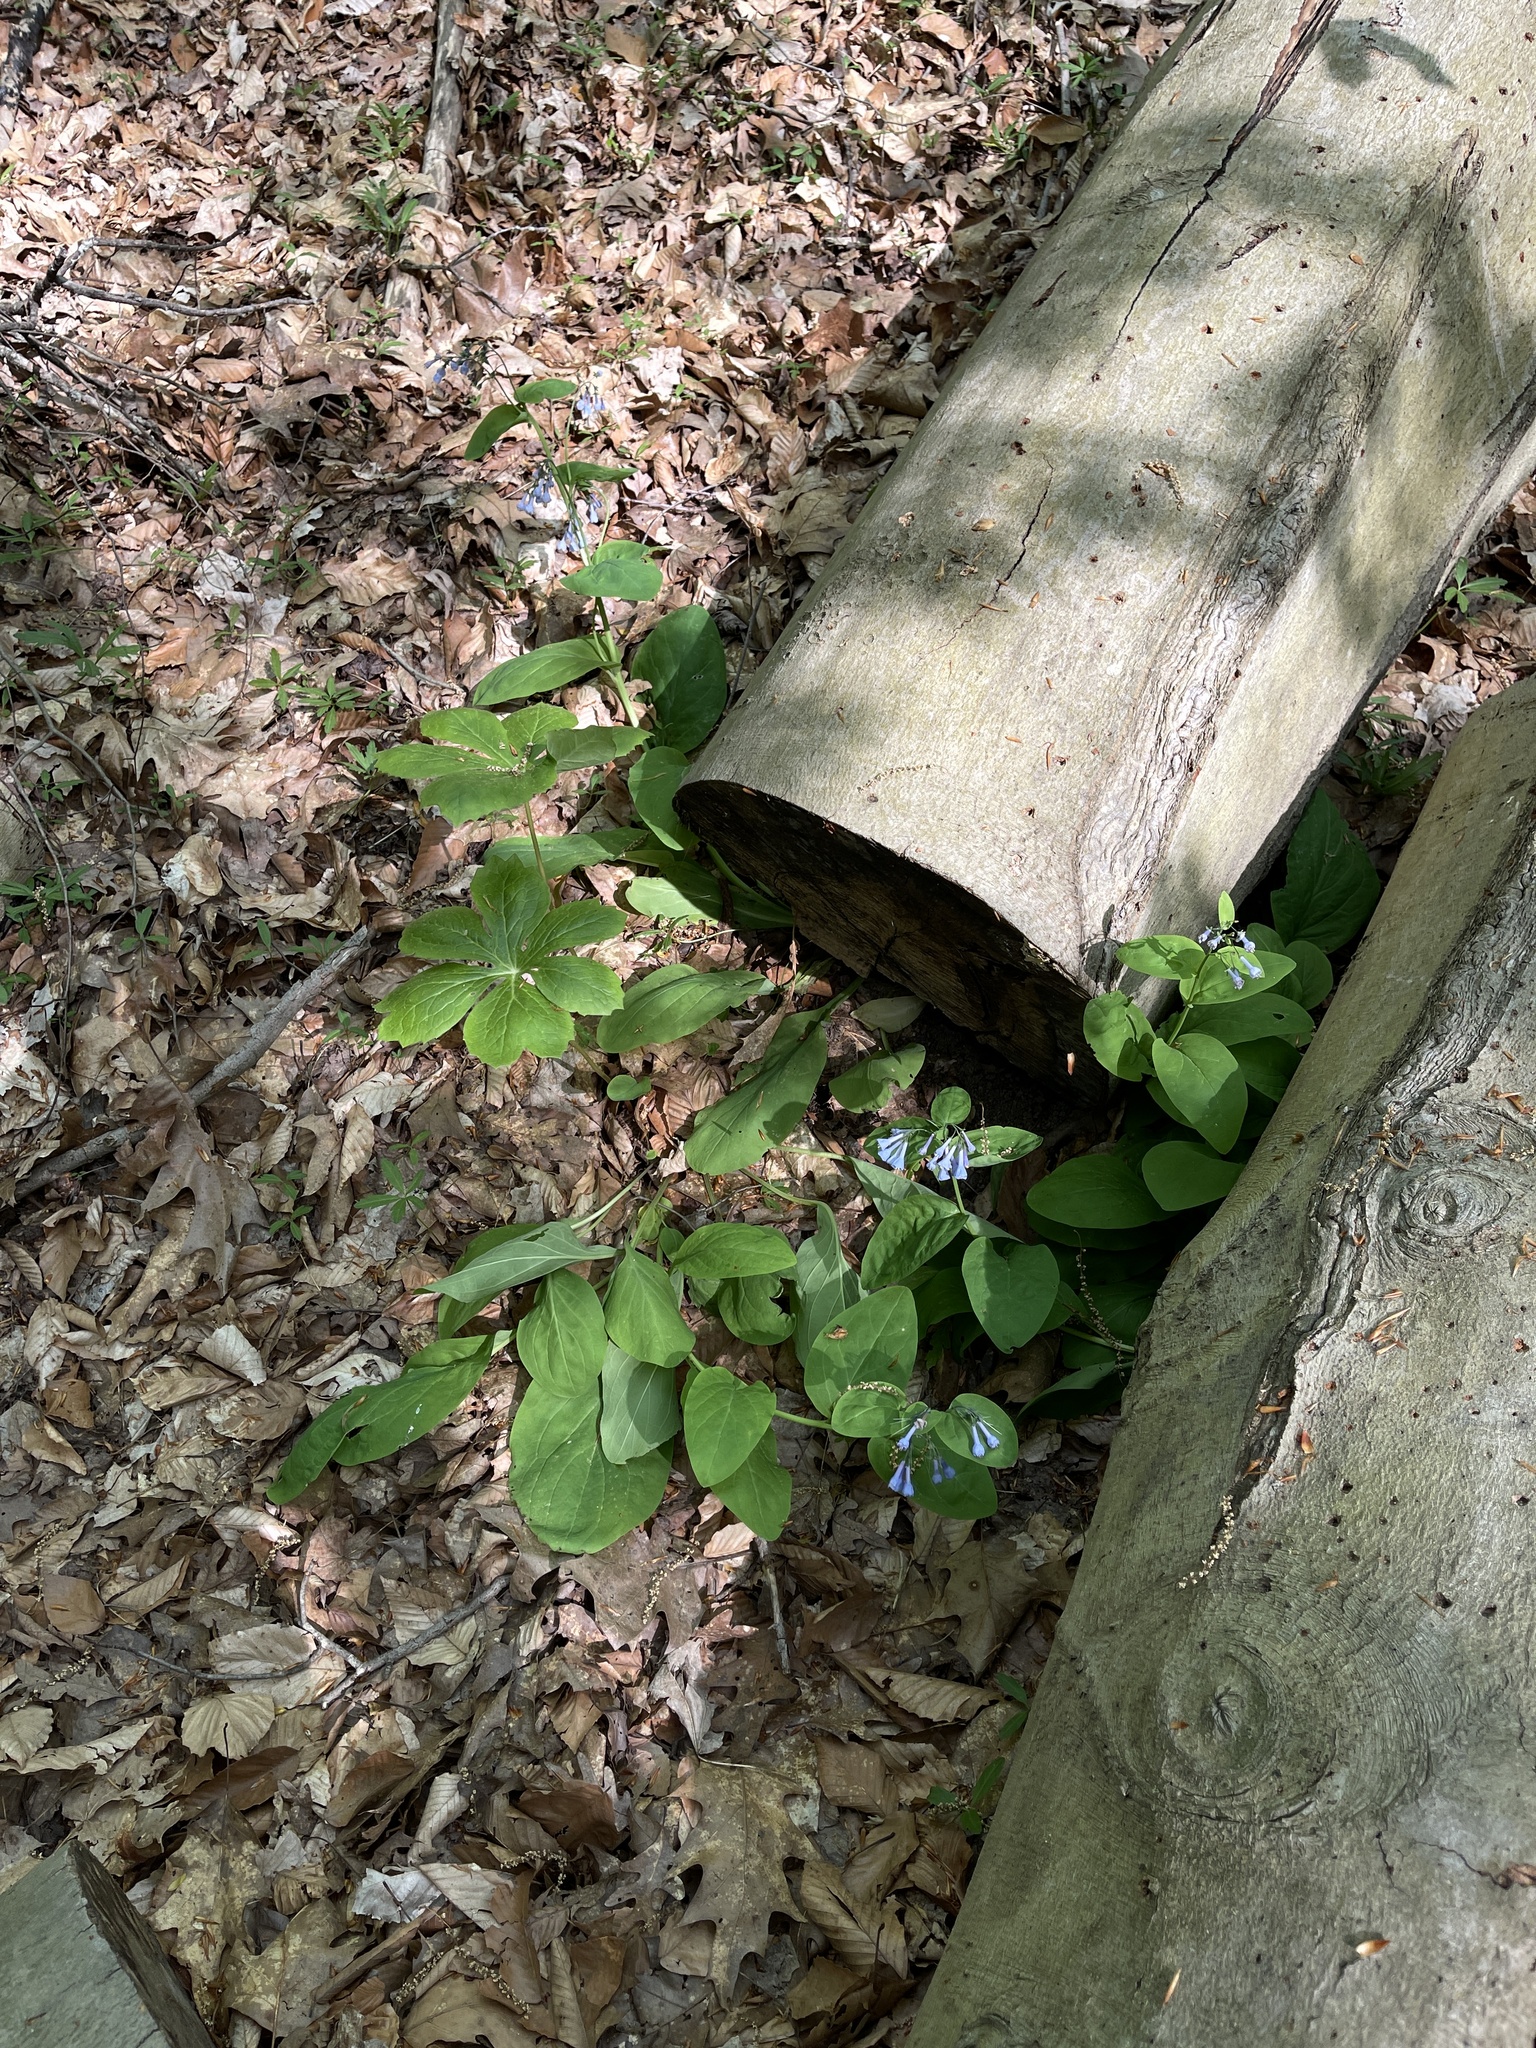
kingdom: Plantae
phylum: Tracheophyta
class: Magnoliopsida
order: Boraginales
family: Boraginaceae
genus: Mertensia
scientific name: Mertensia virginica
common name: Virginia bluebells
